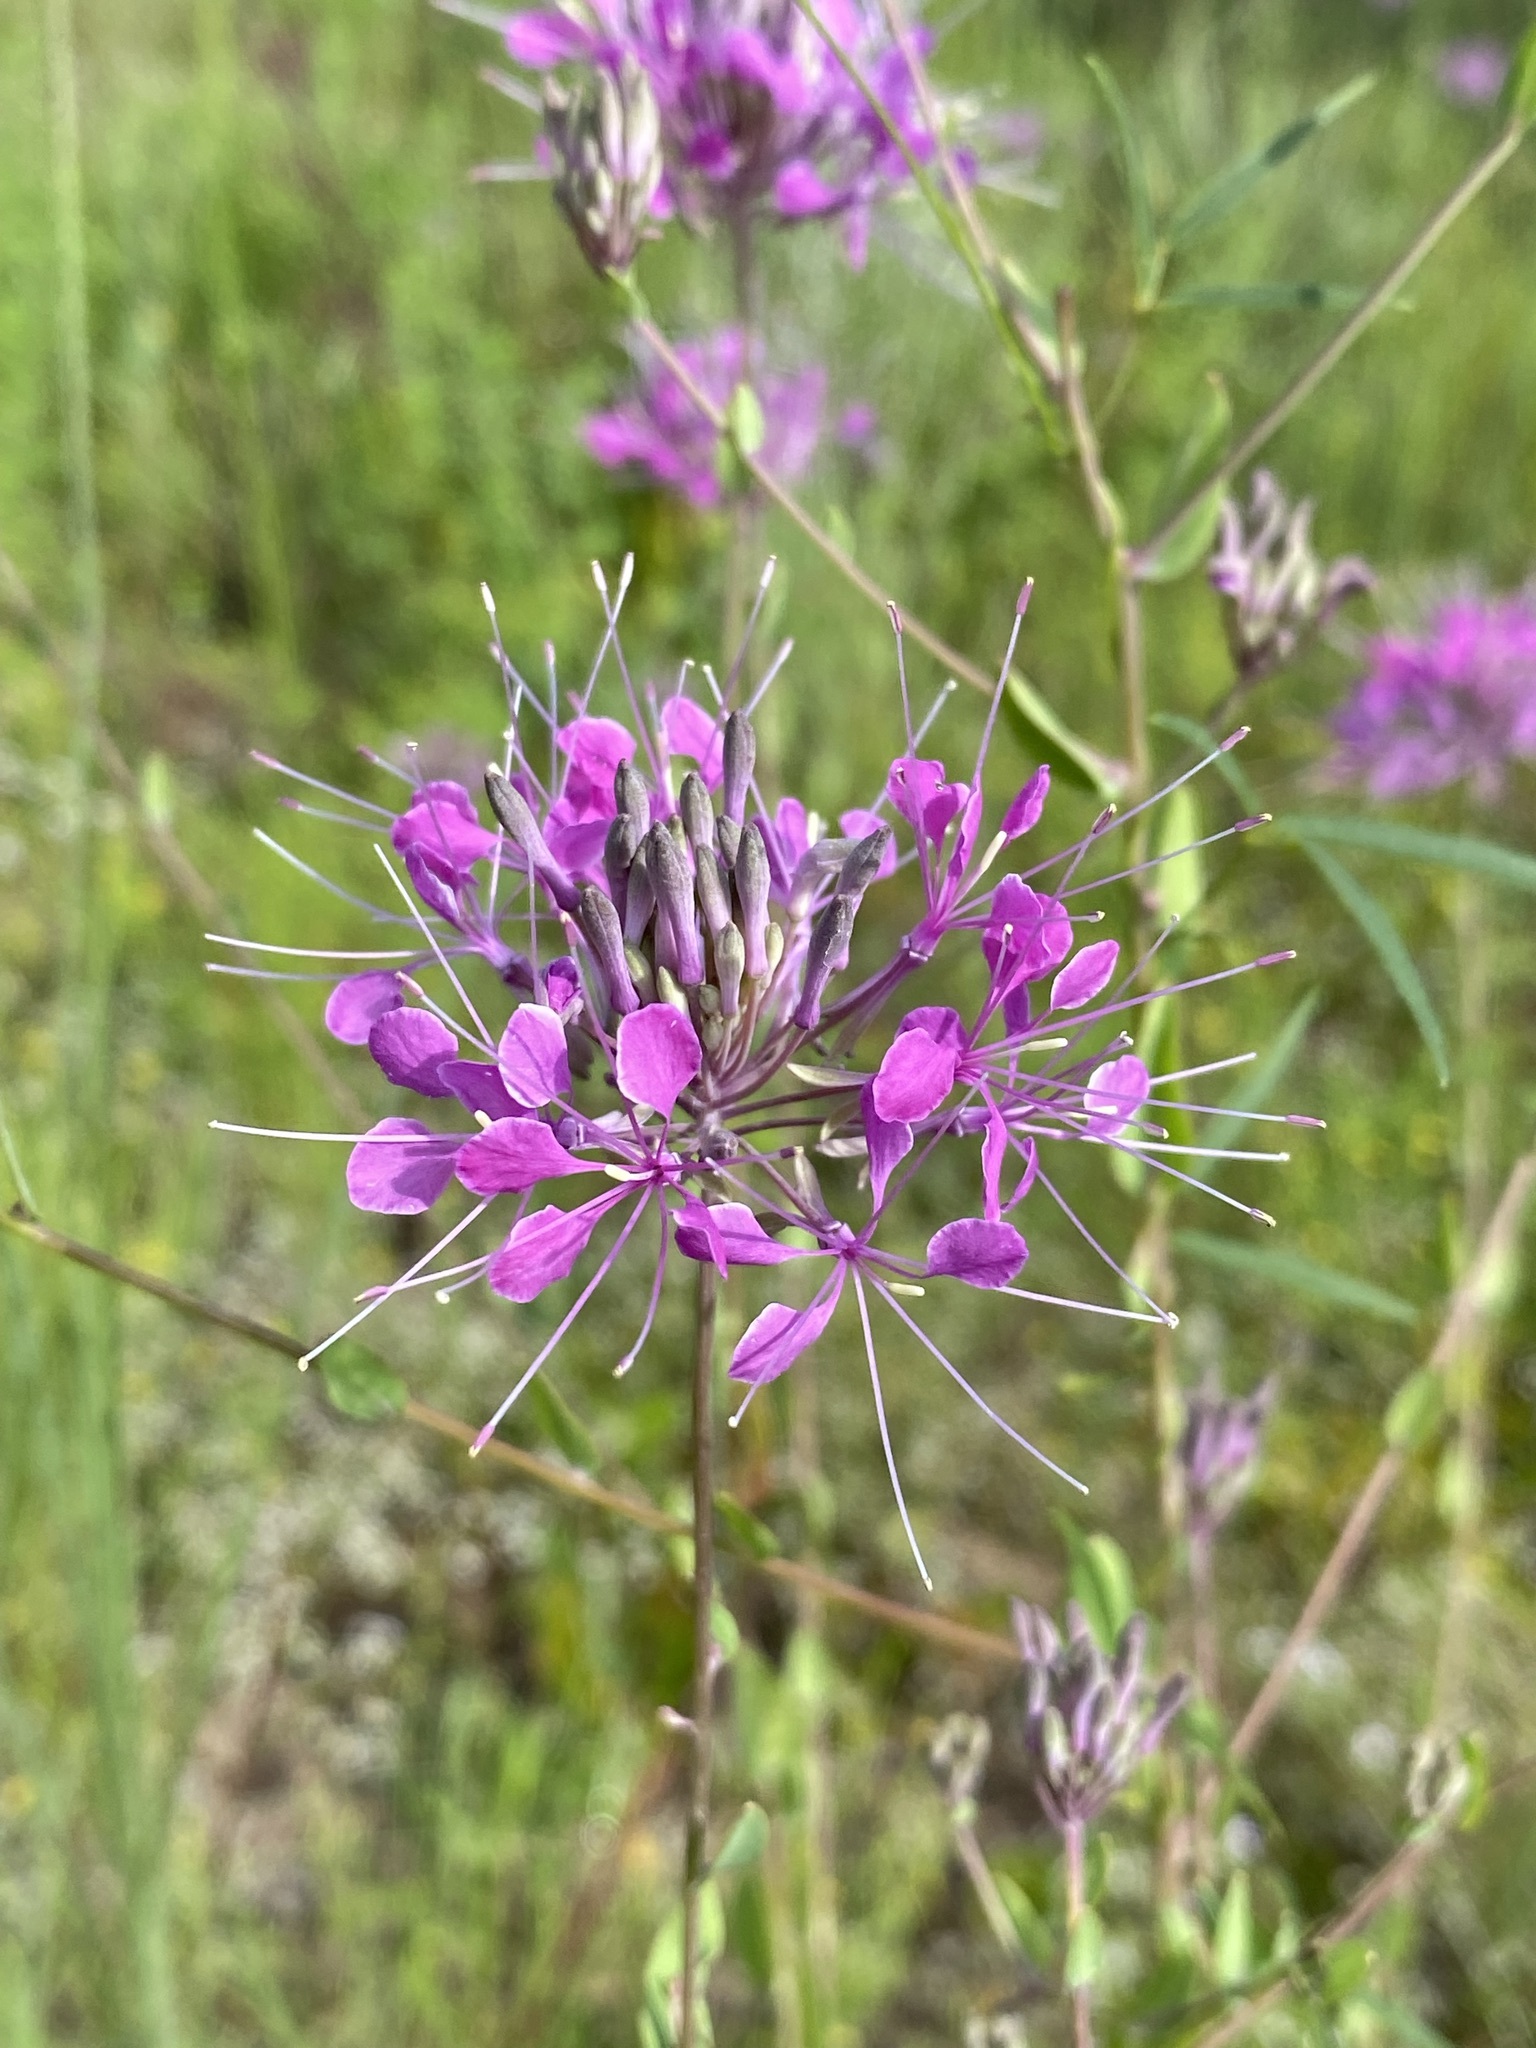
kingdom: Plantae
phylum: Tracheophyta
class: Magnoliopsida
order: Brassicales
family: Brassicaceae
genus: Warea
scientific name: Warea sessilifolia
